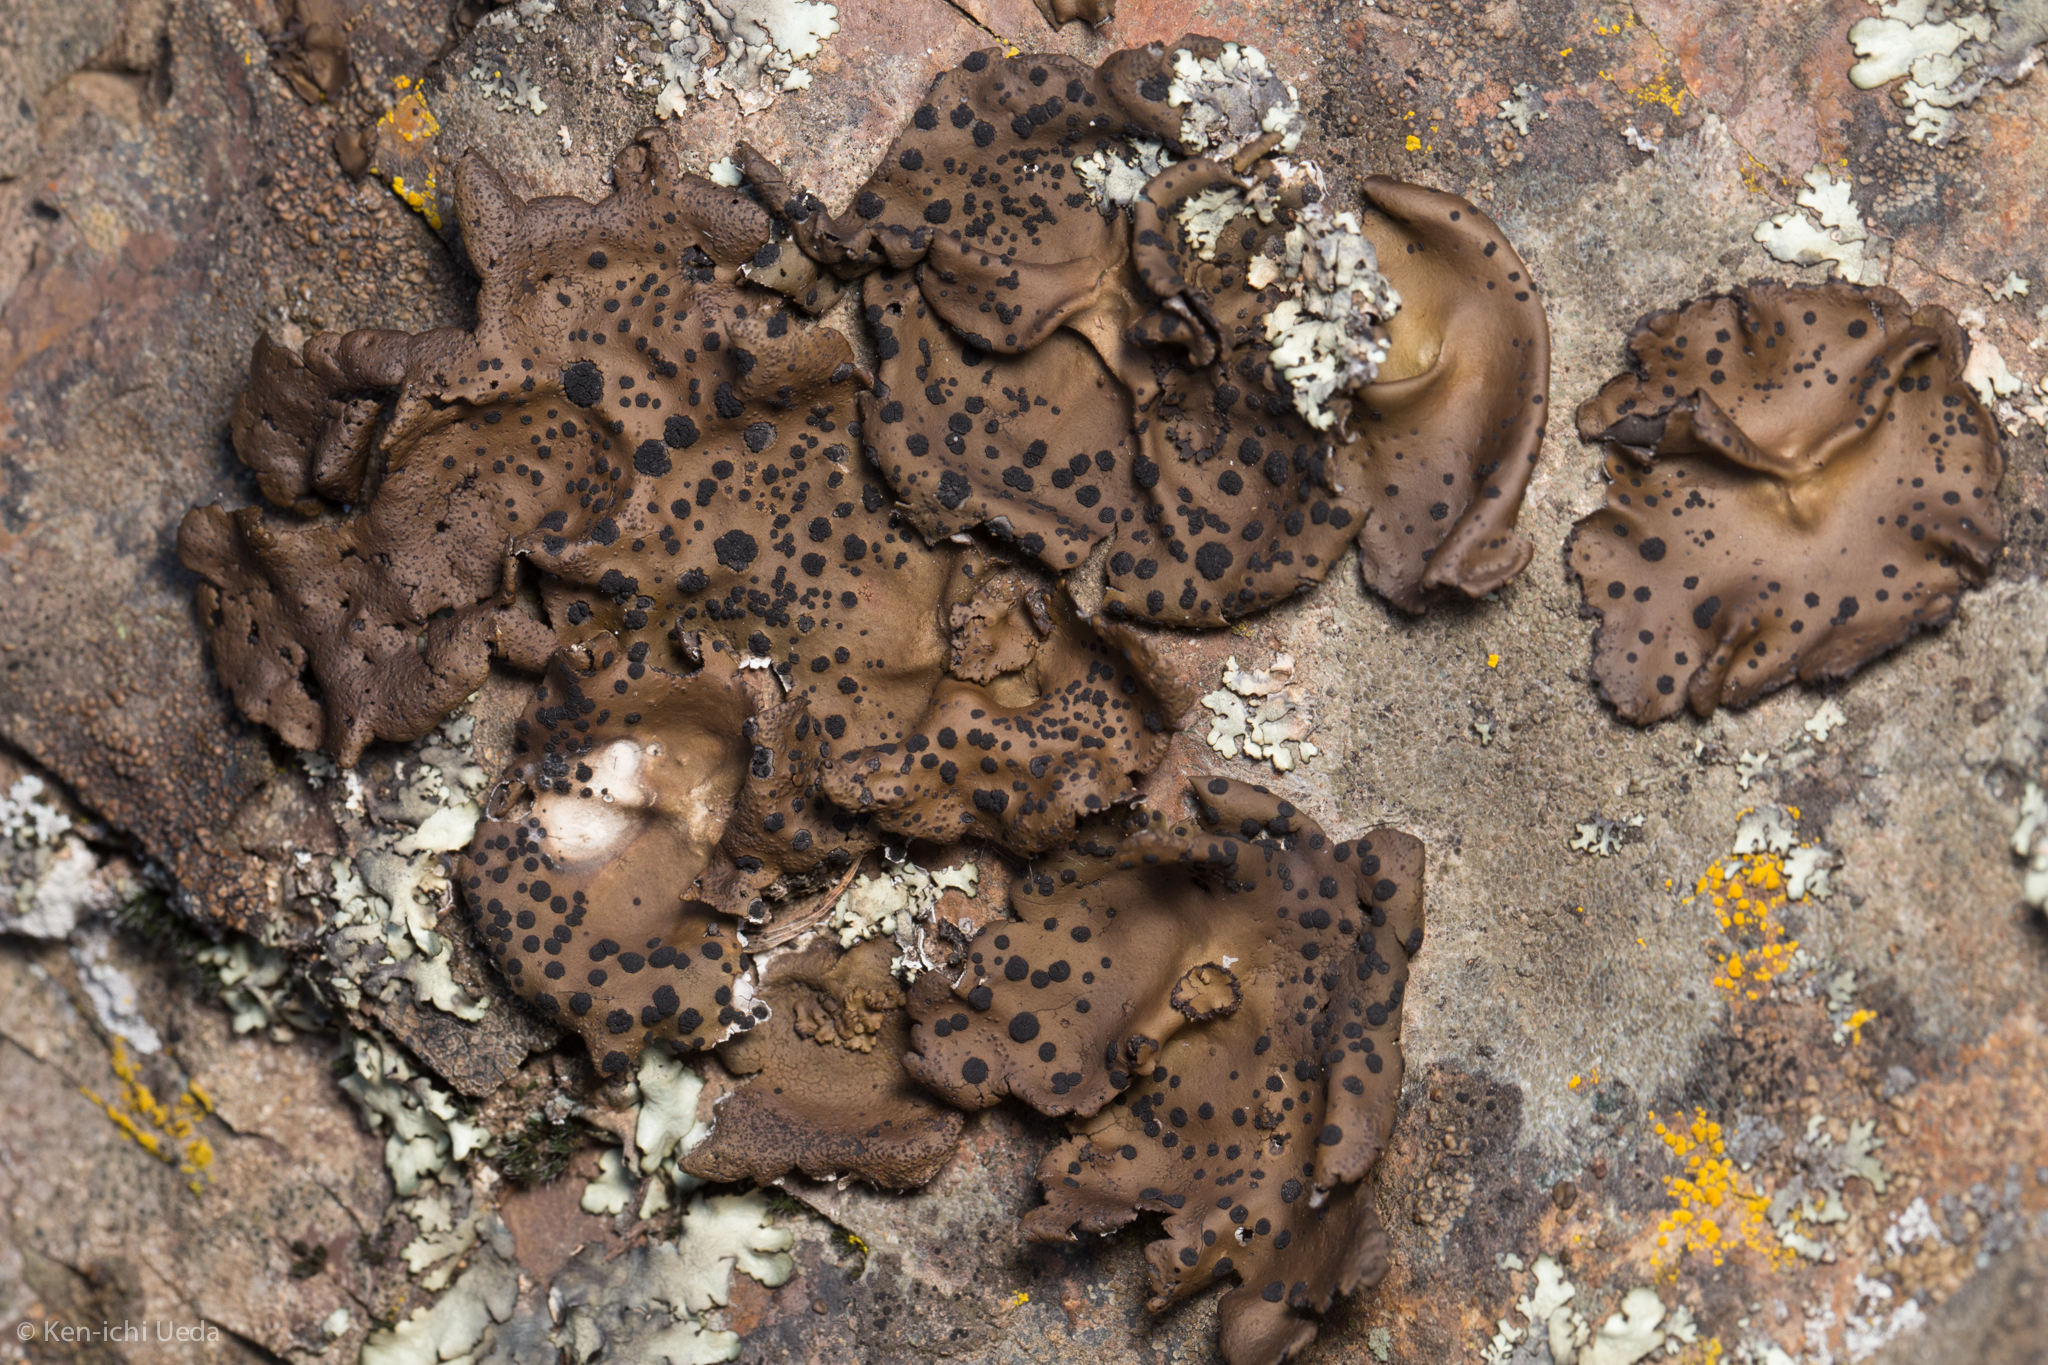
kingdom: Fungi
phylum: Ascomycota
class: Lecanoromycetes
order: Umbilicariales
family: Umbilicariaceae
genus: Umbilicaria
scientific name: Umbilicaria phaea
